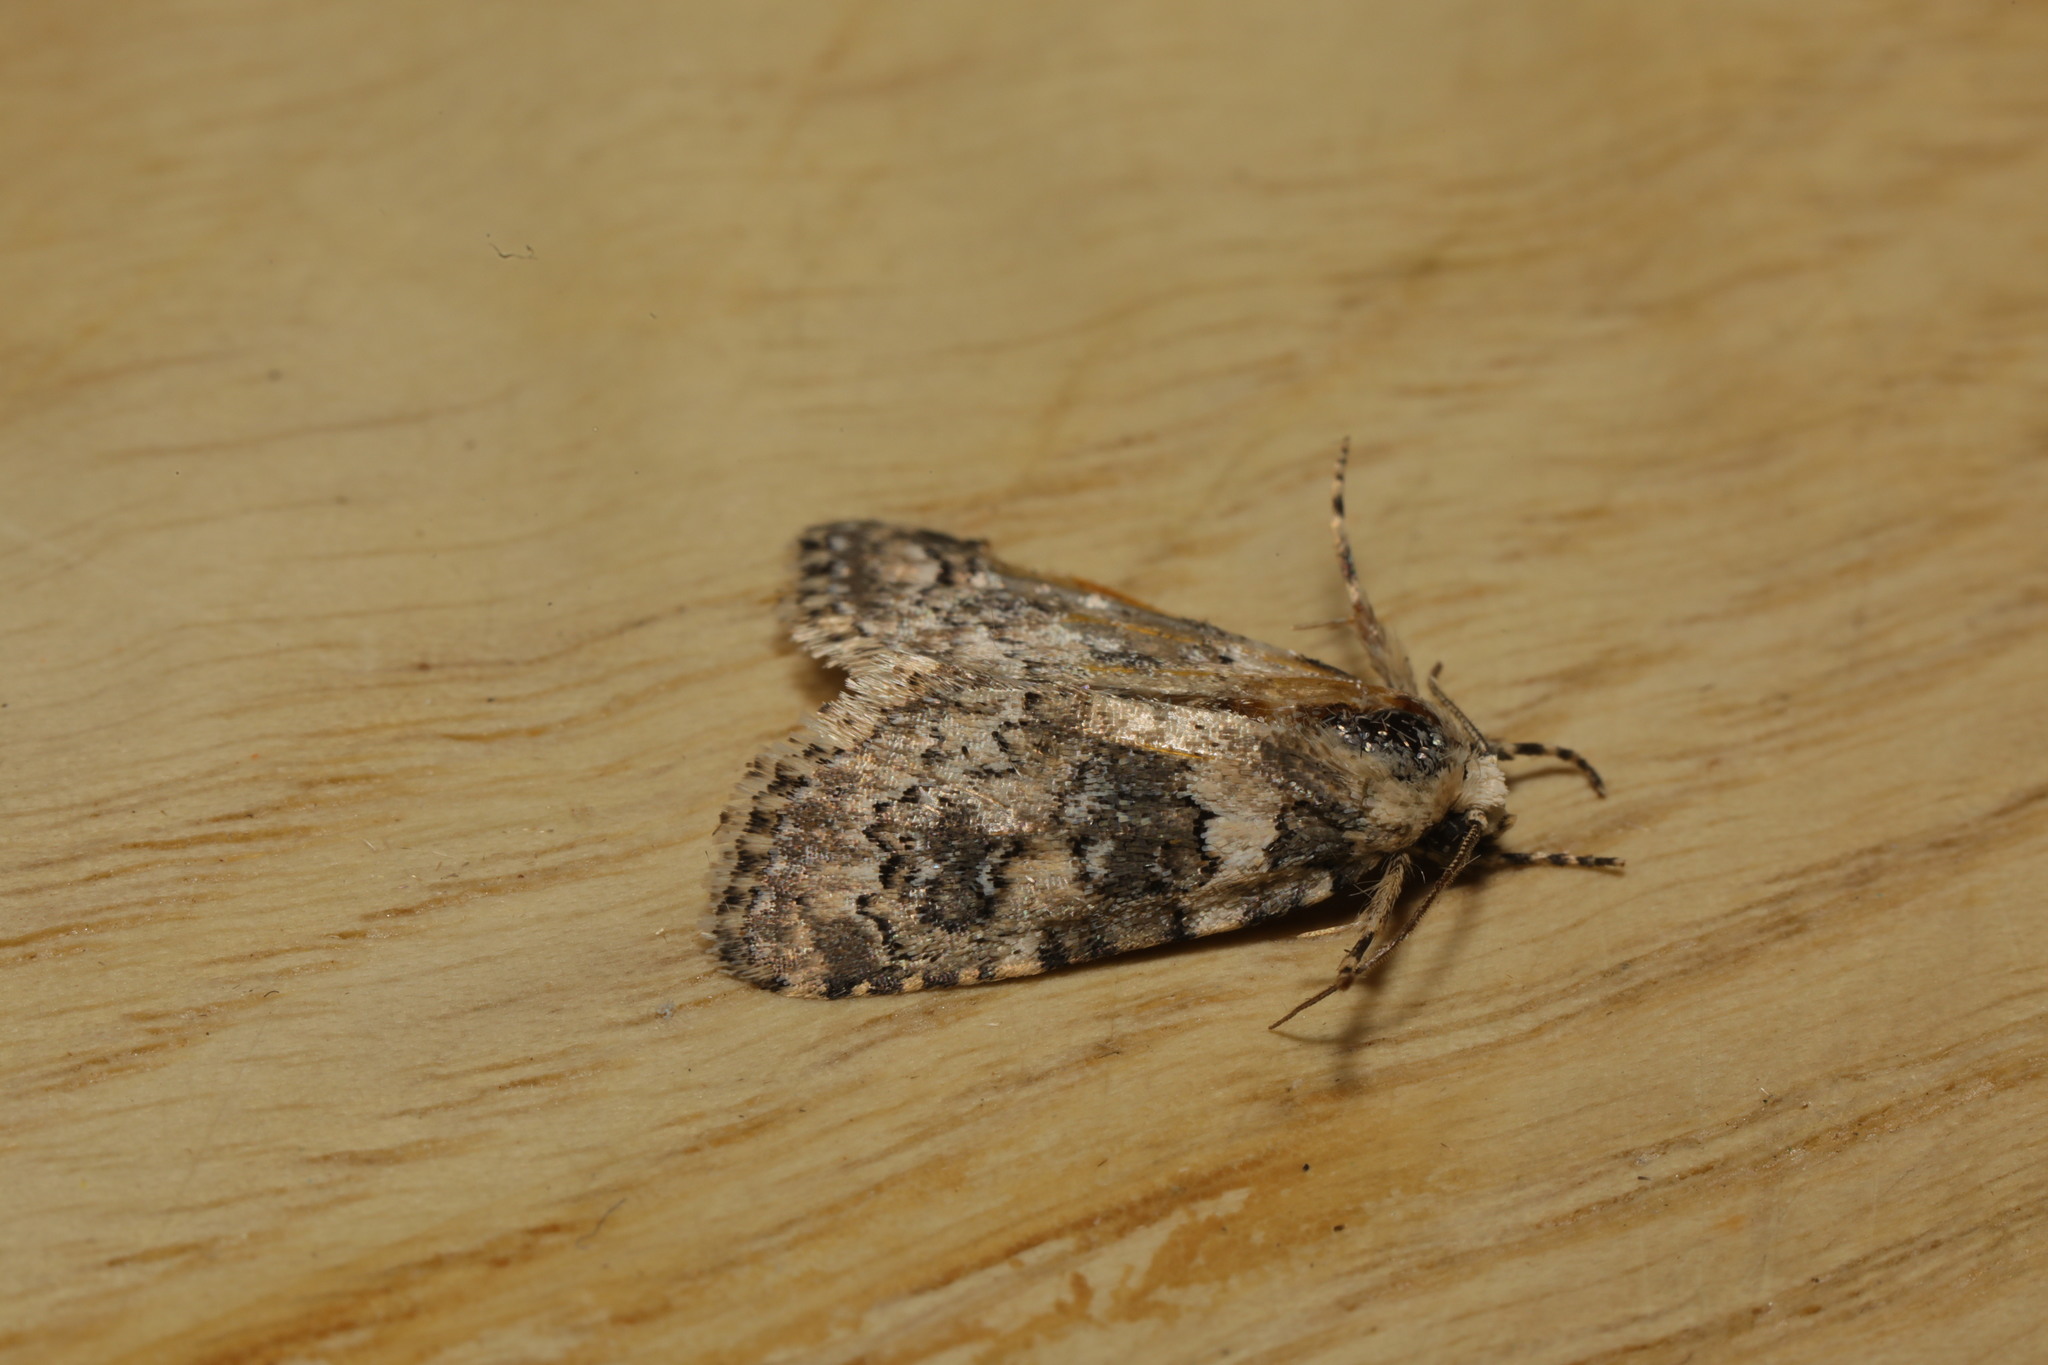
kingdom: Animalia
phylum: Arthropoda
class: Insecta
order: Lepidoptera
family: Noctuidae
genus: Bryophila
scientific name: Bryophila domestica
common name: Marbled beauty
